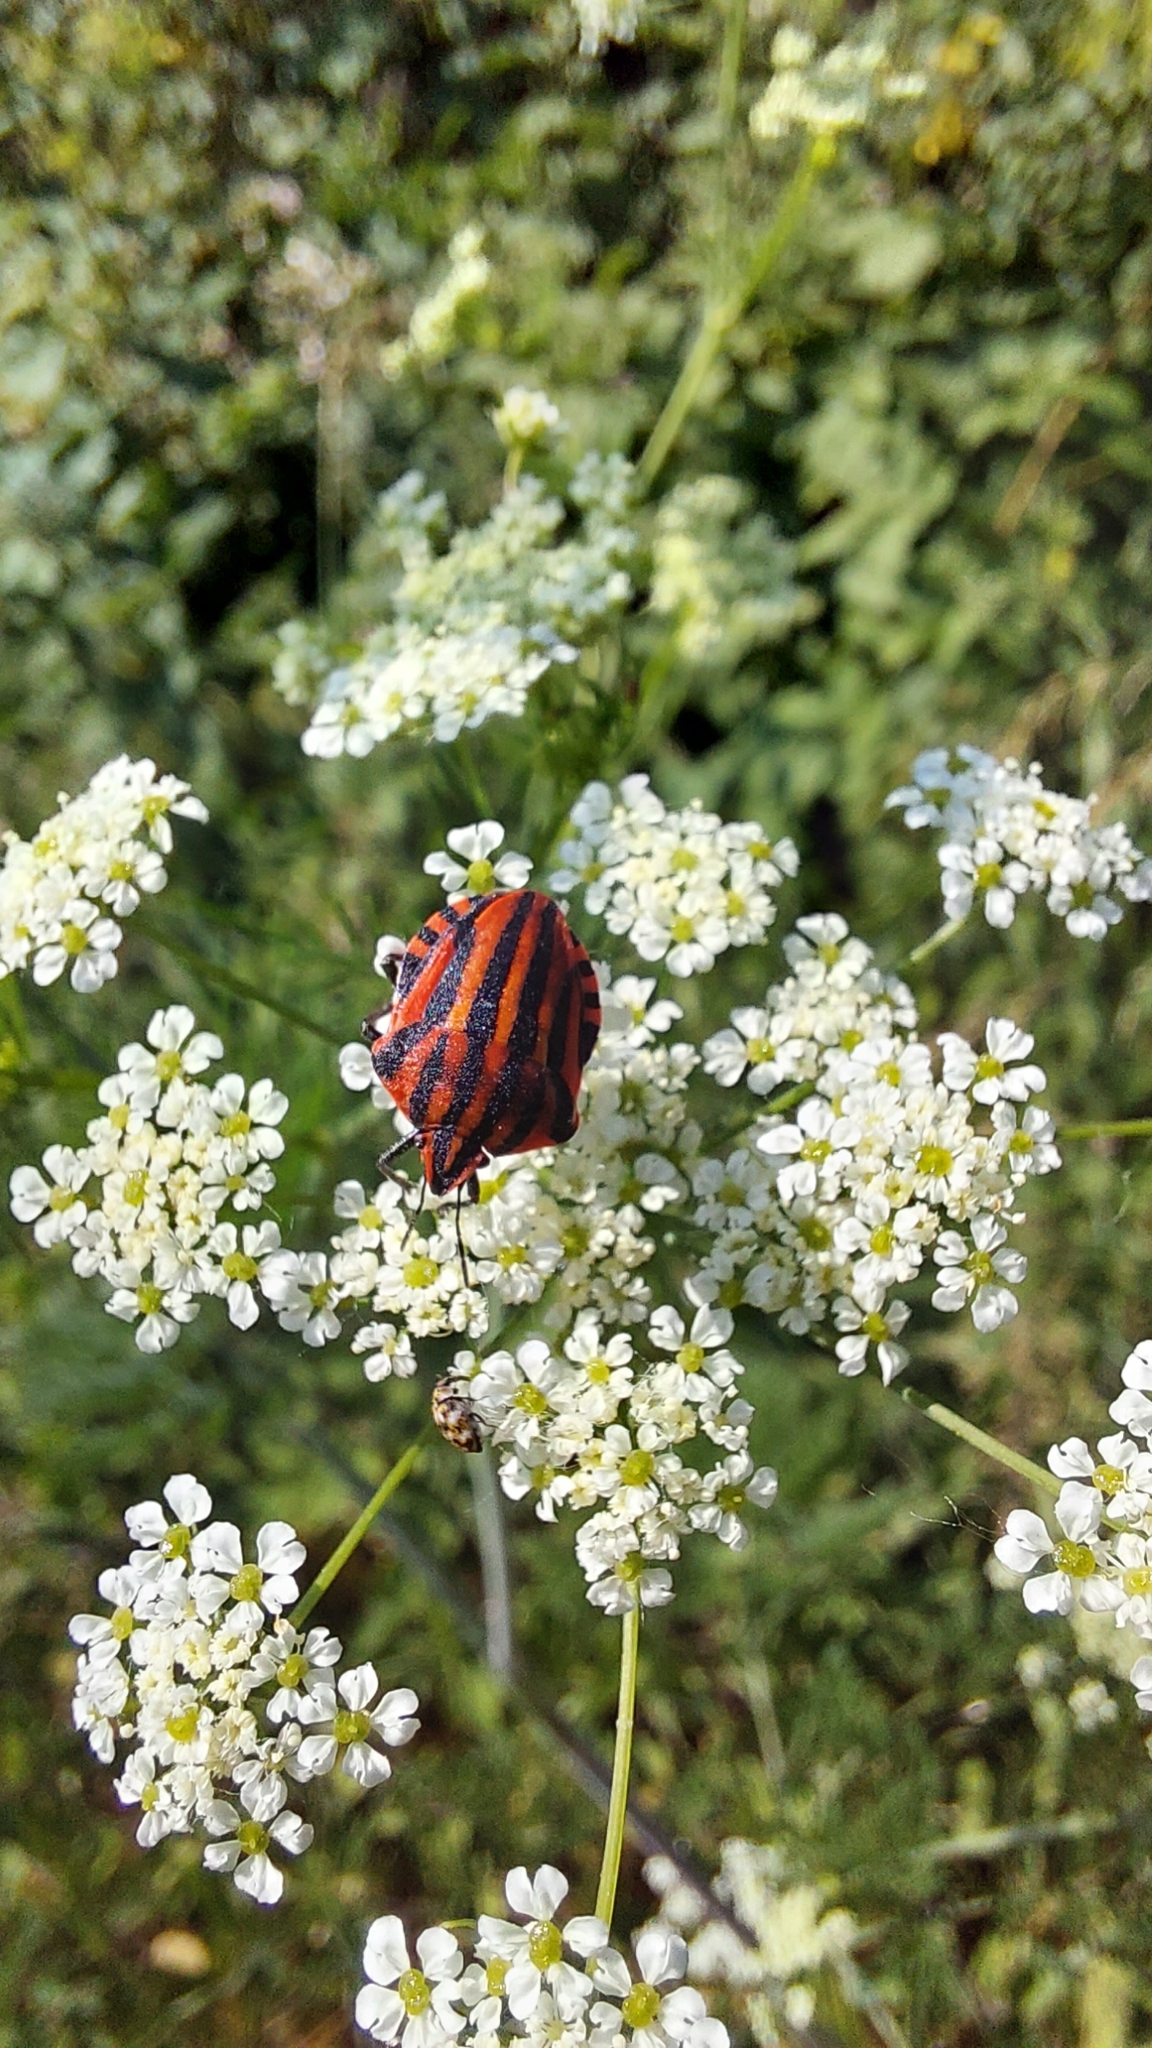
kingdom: Animalia
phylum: Arthropoda
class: Insecta
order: Hemiptera
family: Pentatomidae
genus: Graphosoma
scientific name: Graphosoma italicum
